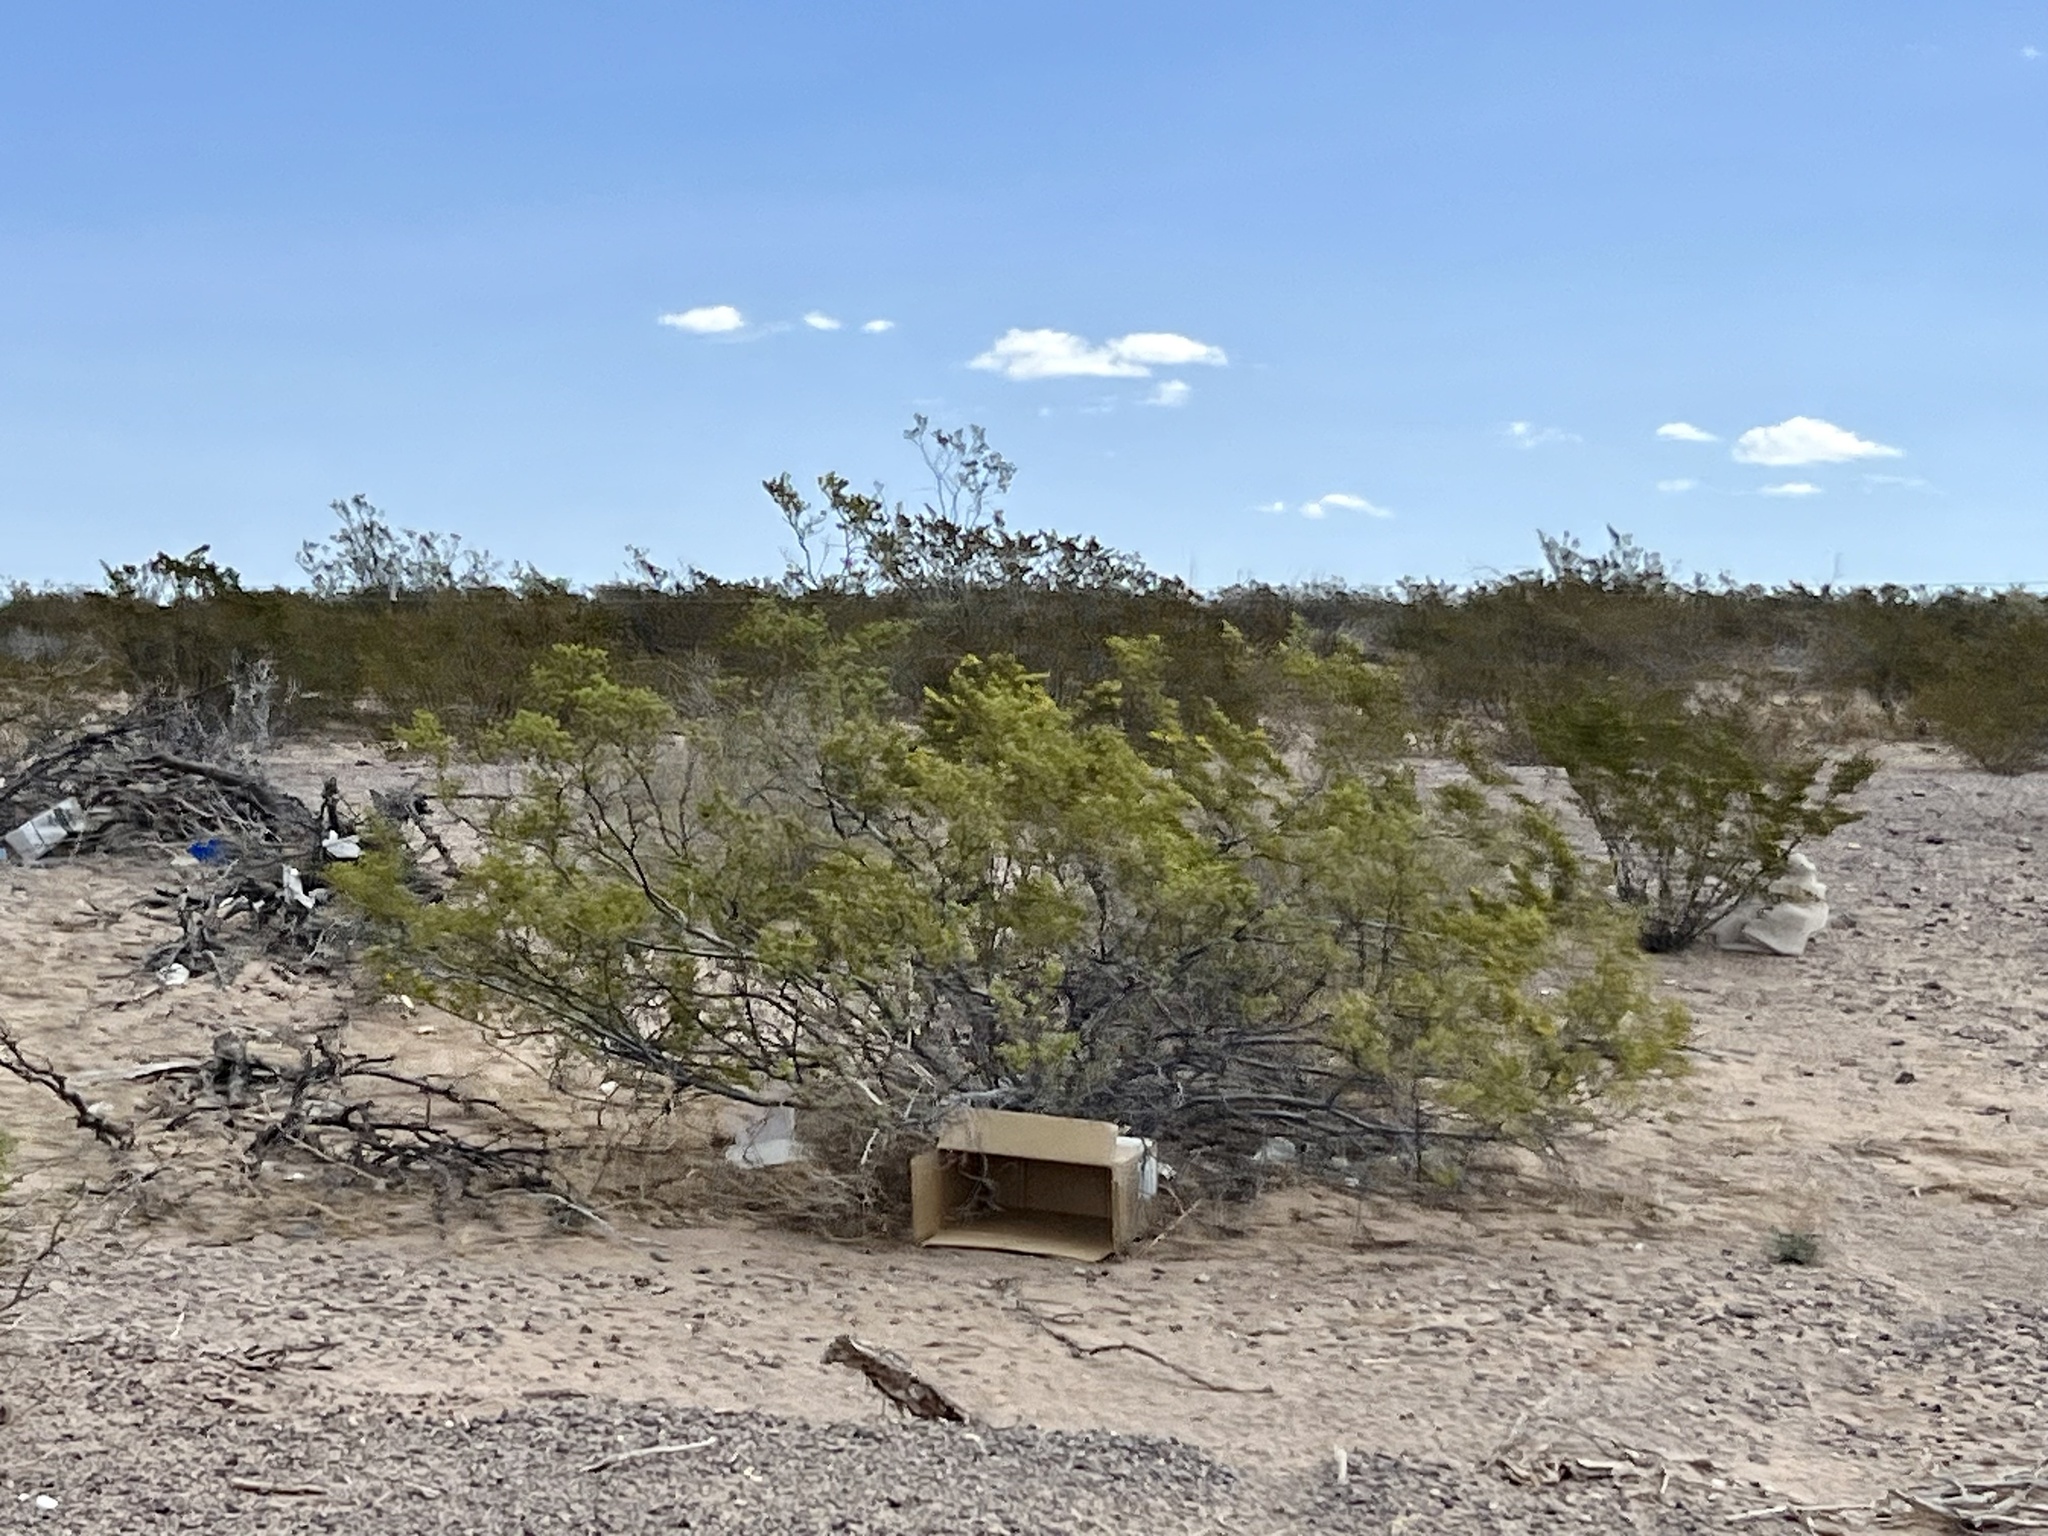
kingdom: Plantae
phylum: Tracheophyta
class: Magnoliopsida
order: Zygophyllales
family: Zygophyllaceae
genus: Larrea
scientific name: Larrea tridentata
